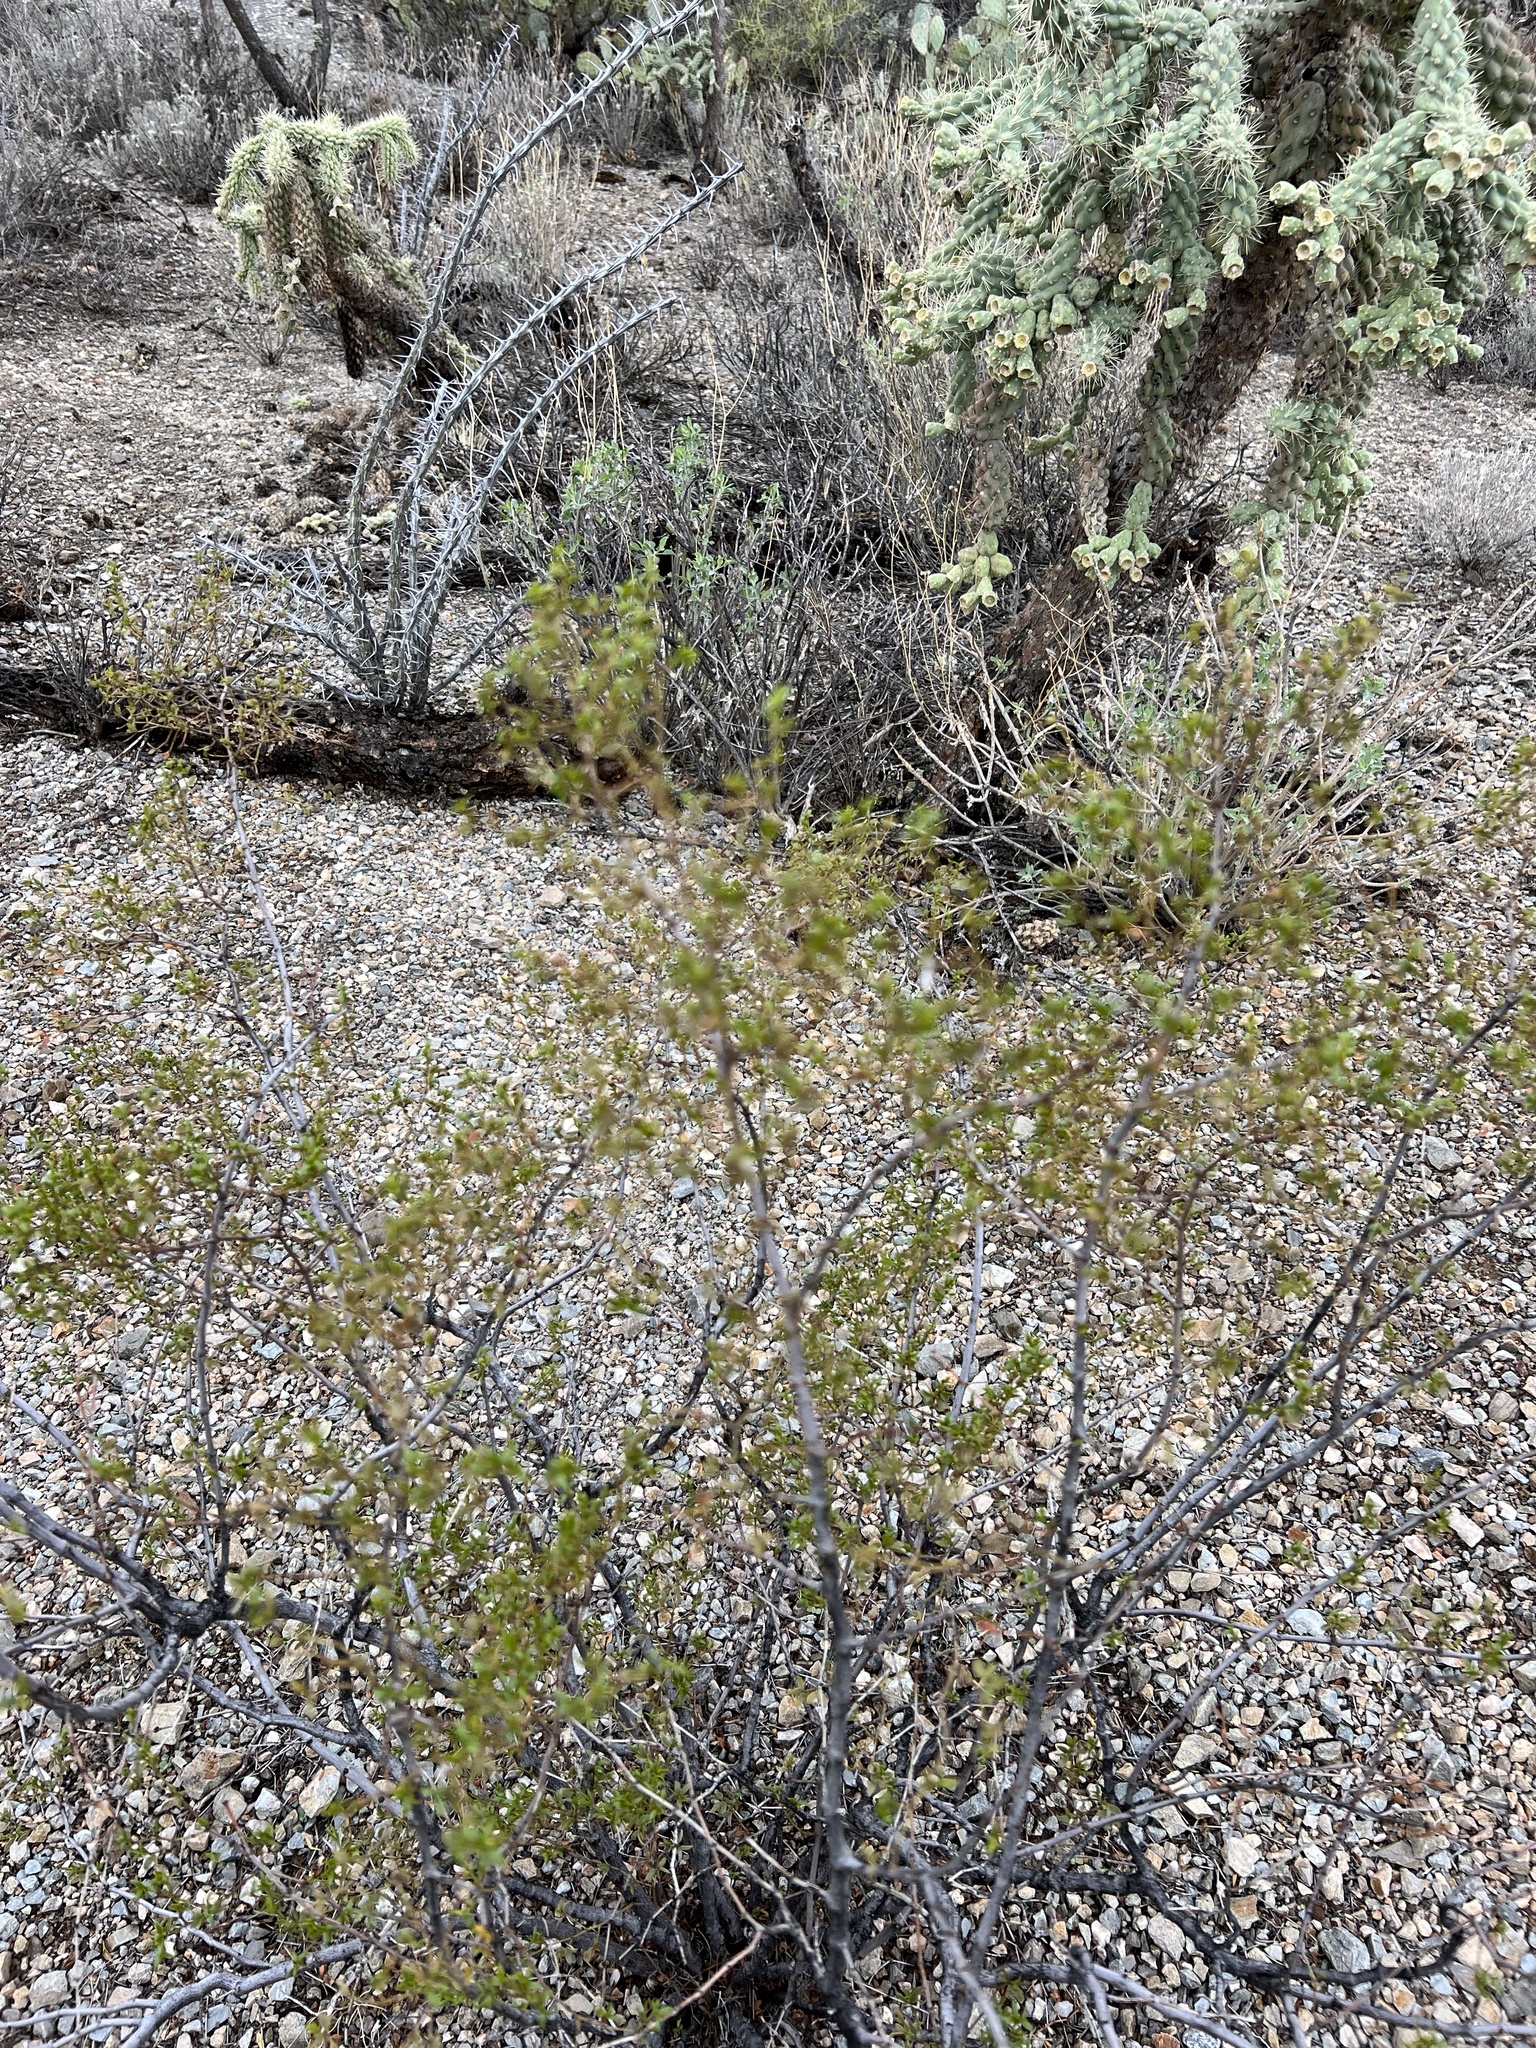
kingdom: Plantae
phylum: Tracheophyta
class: Magnoliopsida
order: Zygophyllales
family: Zygophyllaceae
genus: Larrea
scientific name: Larrea tridentata
